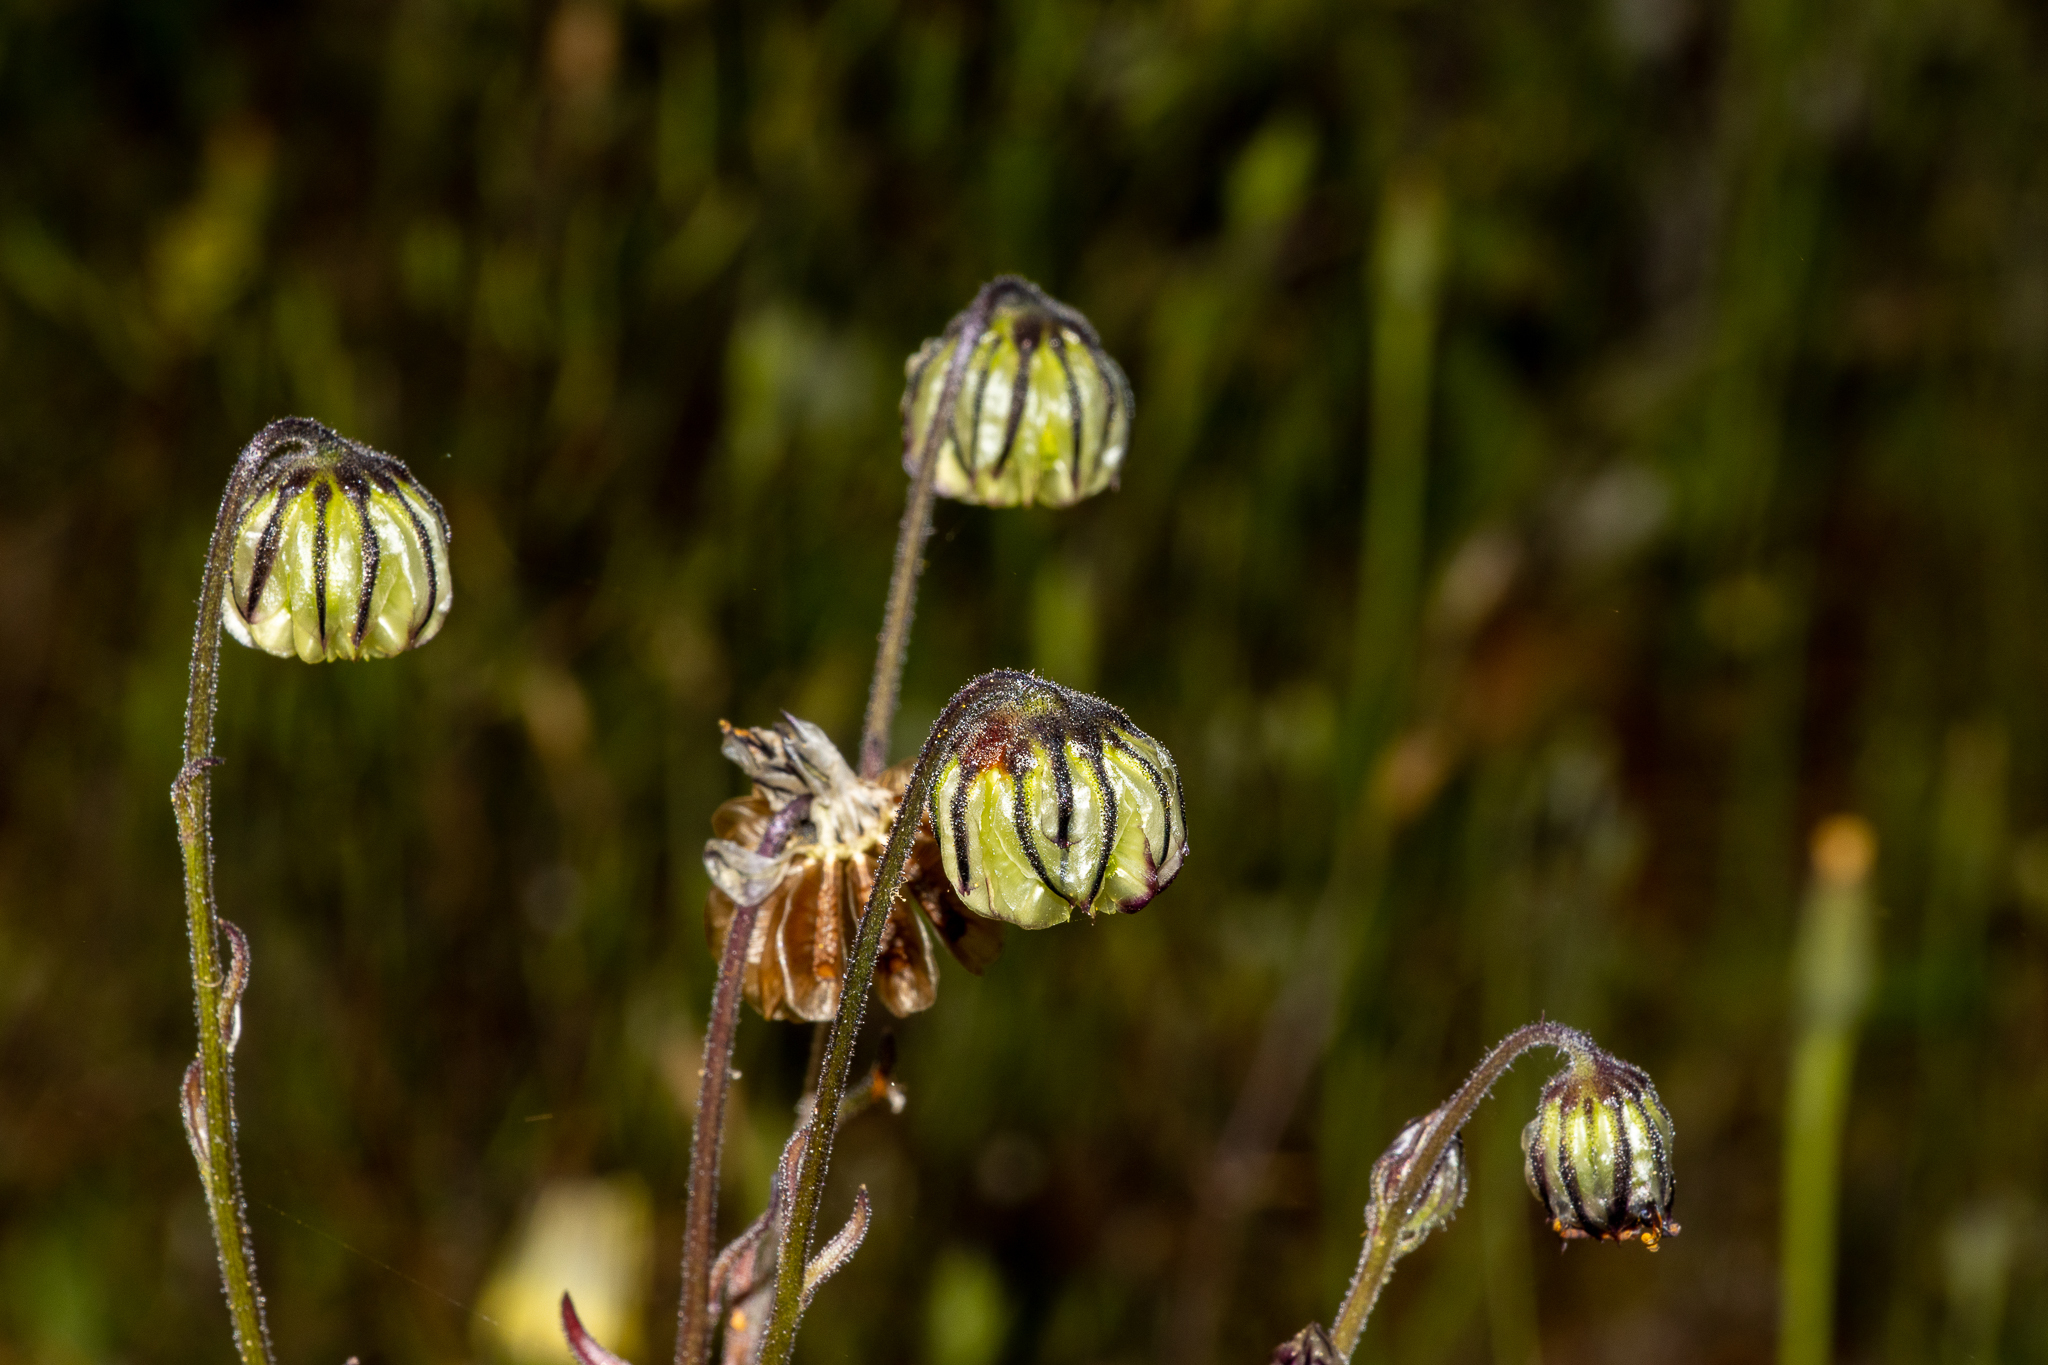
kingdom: Plantae
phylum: Tracheophyta
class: Magnoliopsida
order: Asterales
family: Asteraceae
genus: Osteospermum
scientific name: Osteospermum monstrosum
